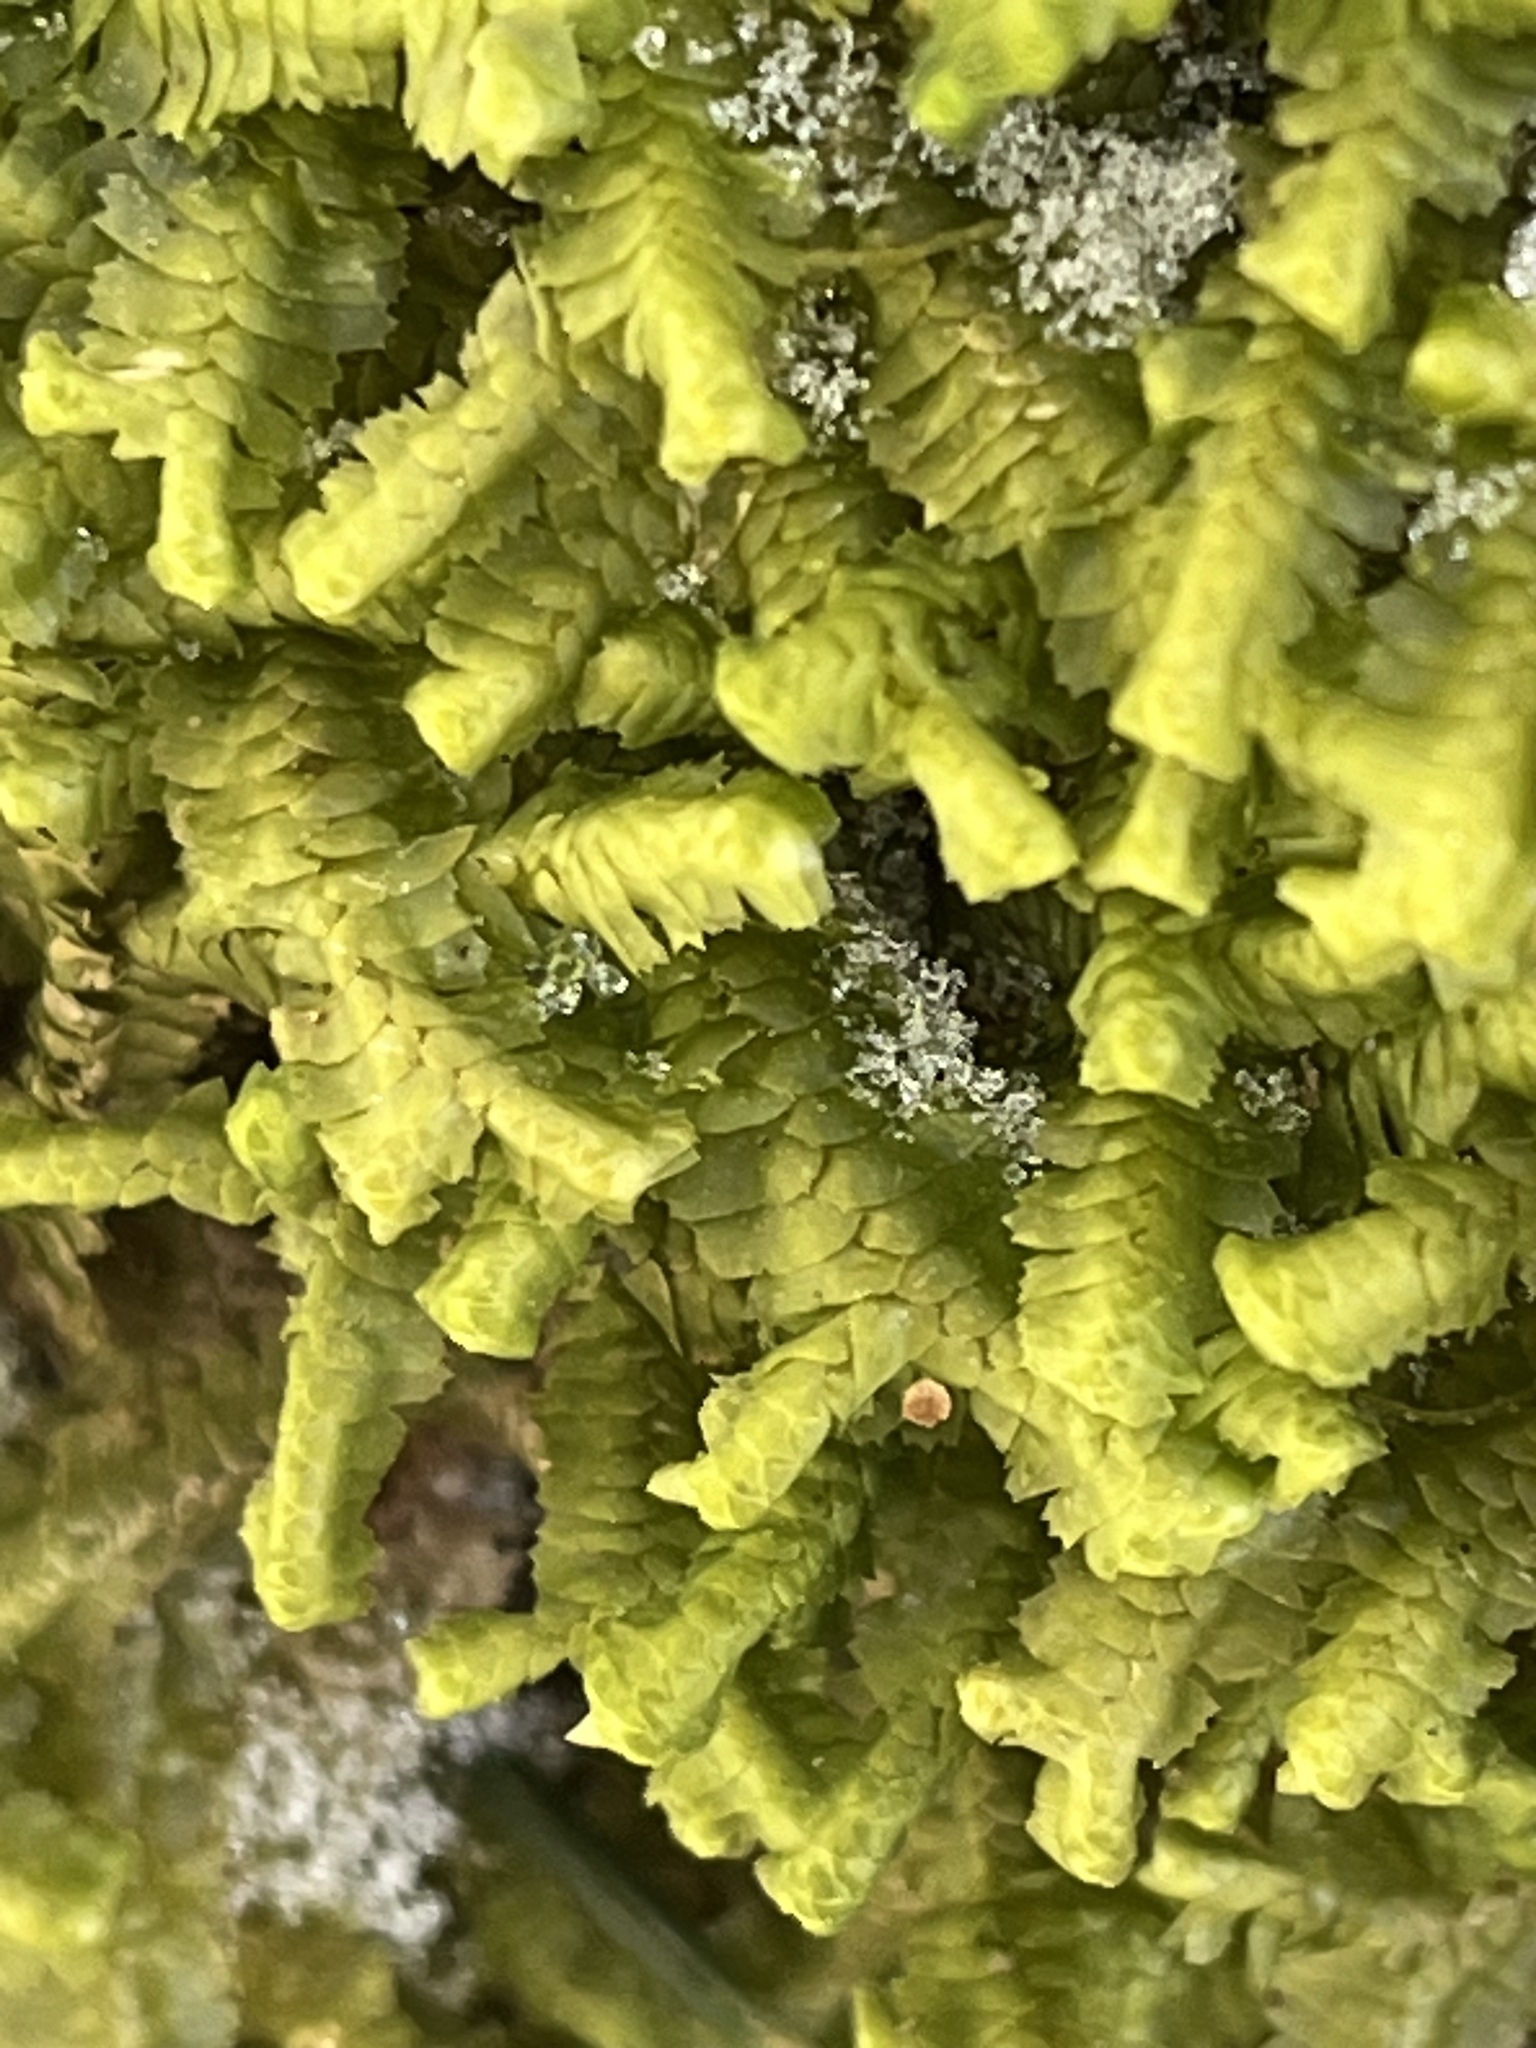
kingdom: Plantae
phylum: Marchantiophyta
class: Jungermanniopsida
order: Jungermanniales
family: Lepidoziaceae
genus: Bazzania
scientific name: Bazzania trilobata
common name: Three-lobed whipwort
